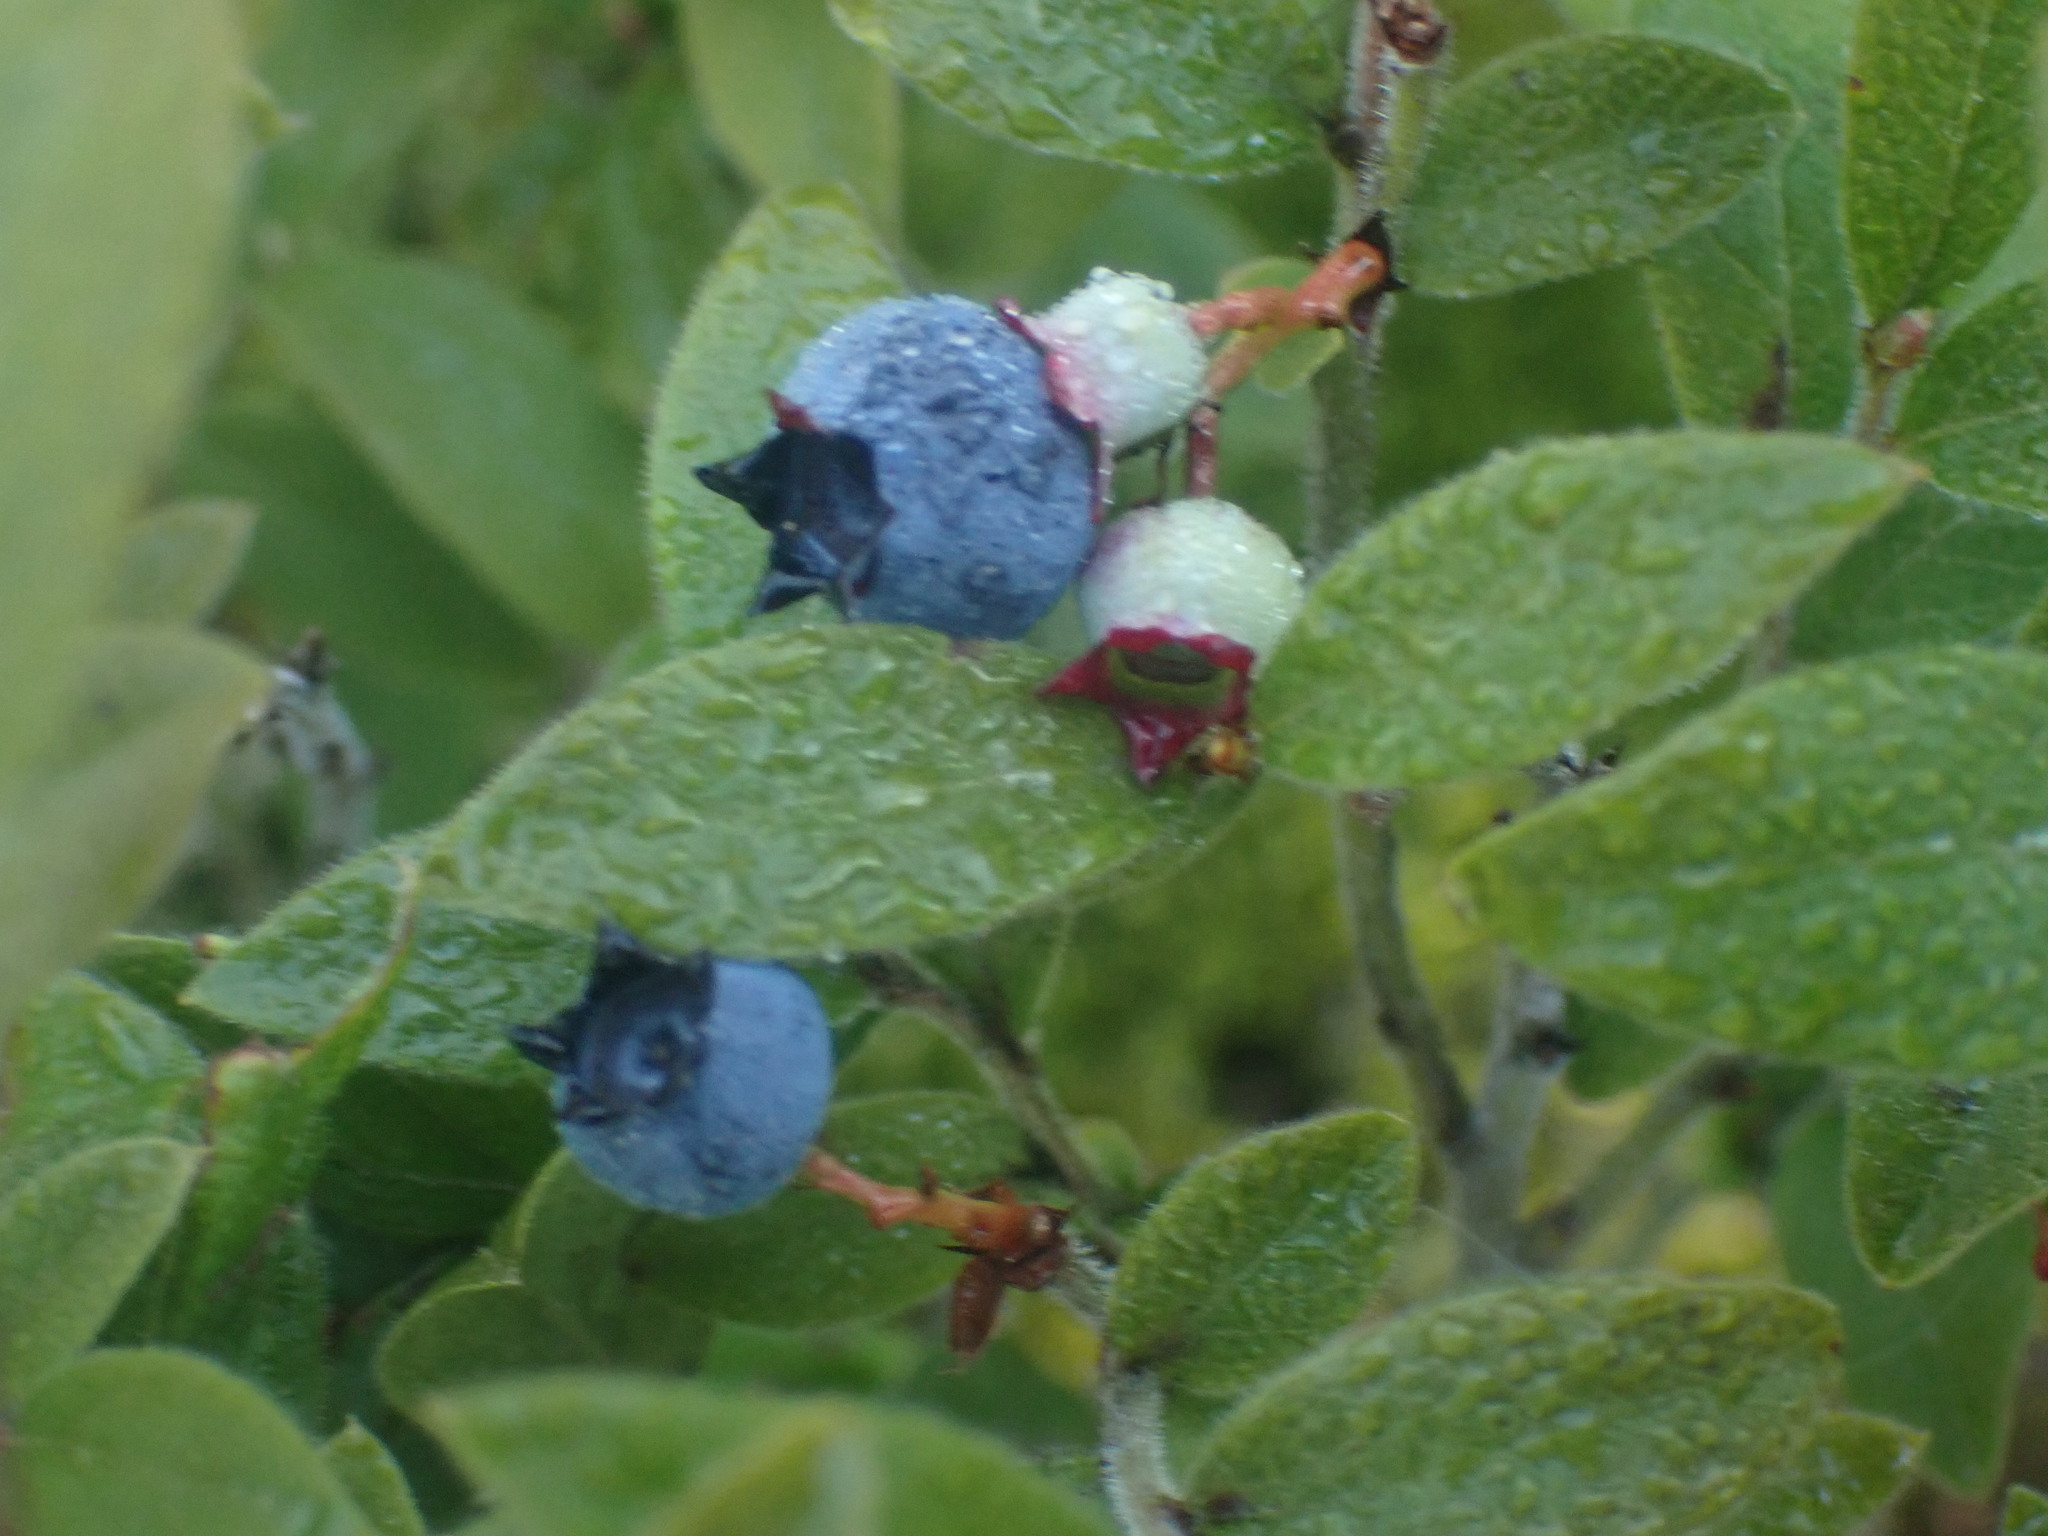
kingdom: Plantae
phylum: Tracheophyta
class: Magnoliopsida
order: Ericales
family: Ericaceae
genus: Vaccinium
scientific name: Vaccinium myrtilloides
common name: Canada blueberry
